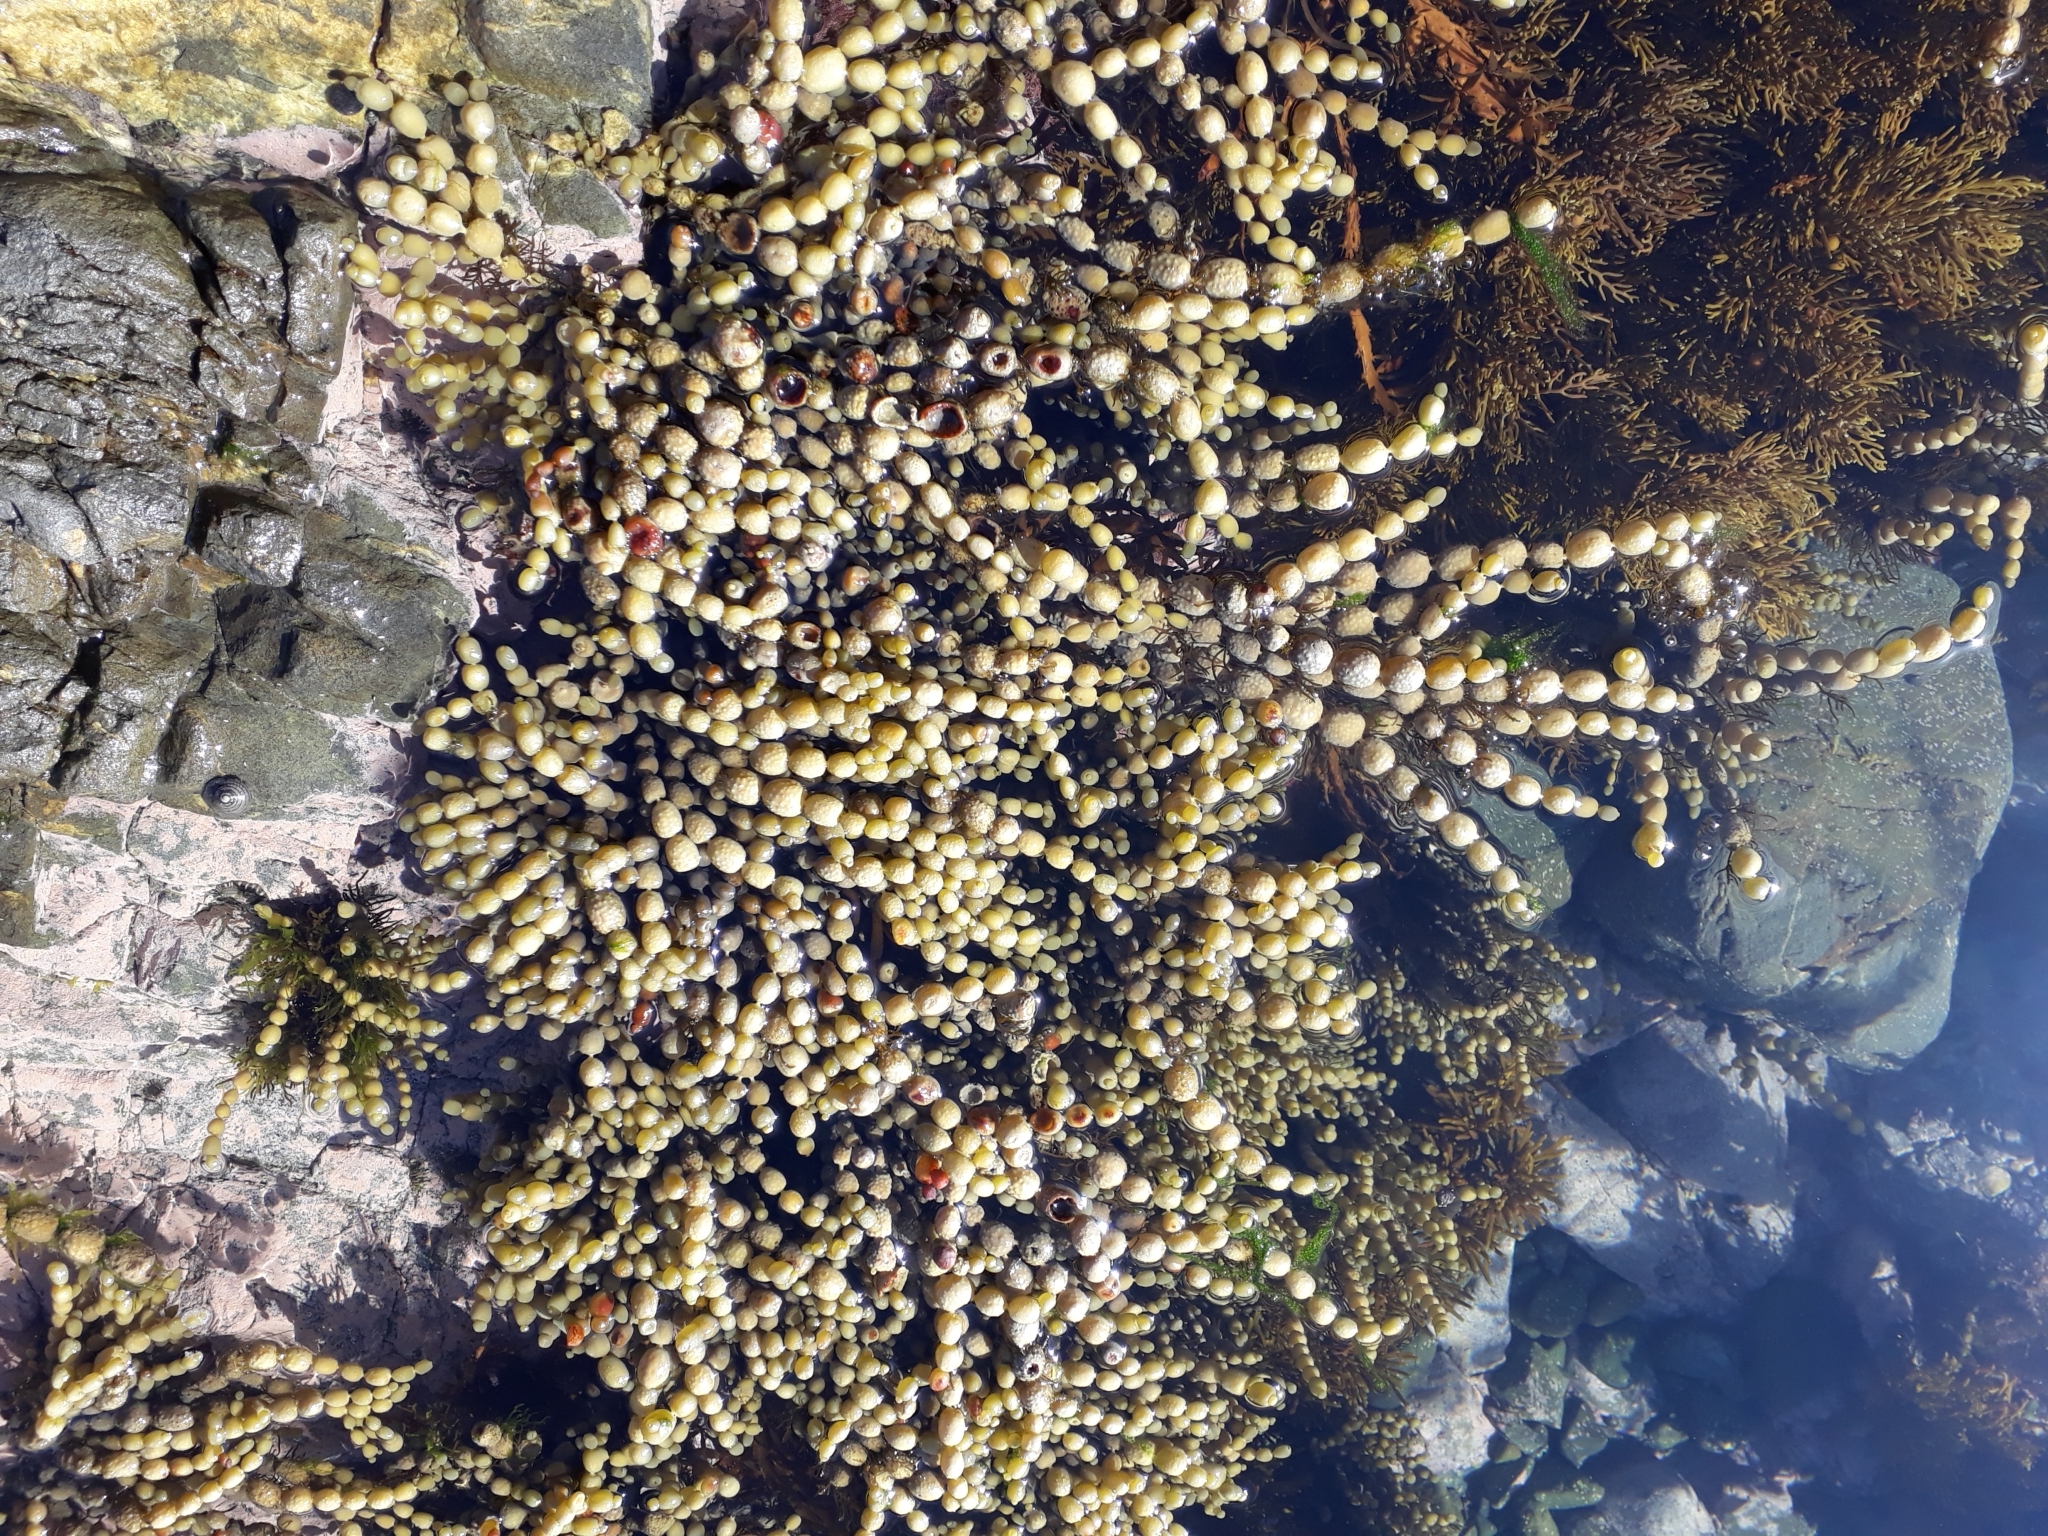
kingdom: Chromista
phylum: Ochrophyta
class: Phaeophyceae
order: Fucales
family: Hormosiraceae
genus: Hormosira
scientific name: Hormosira banksii
